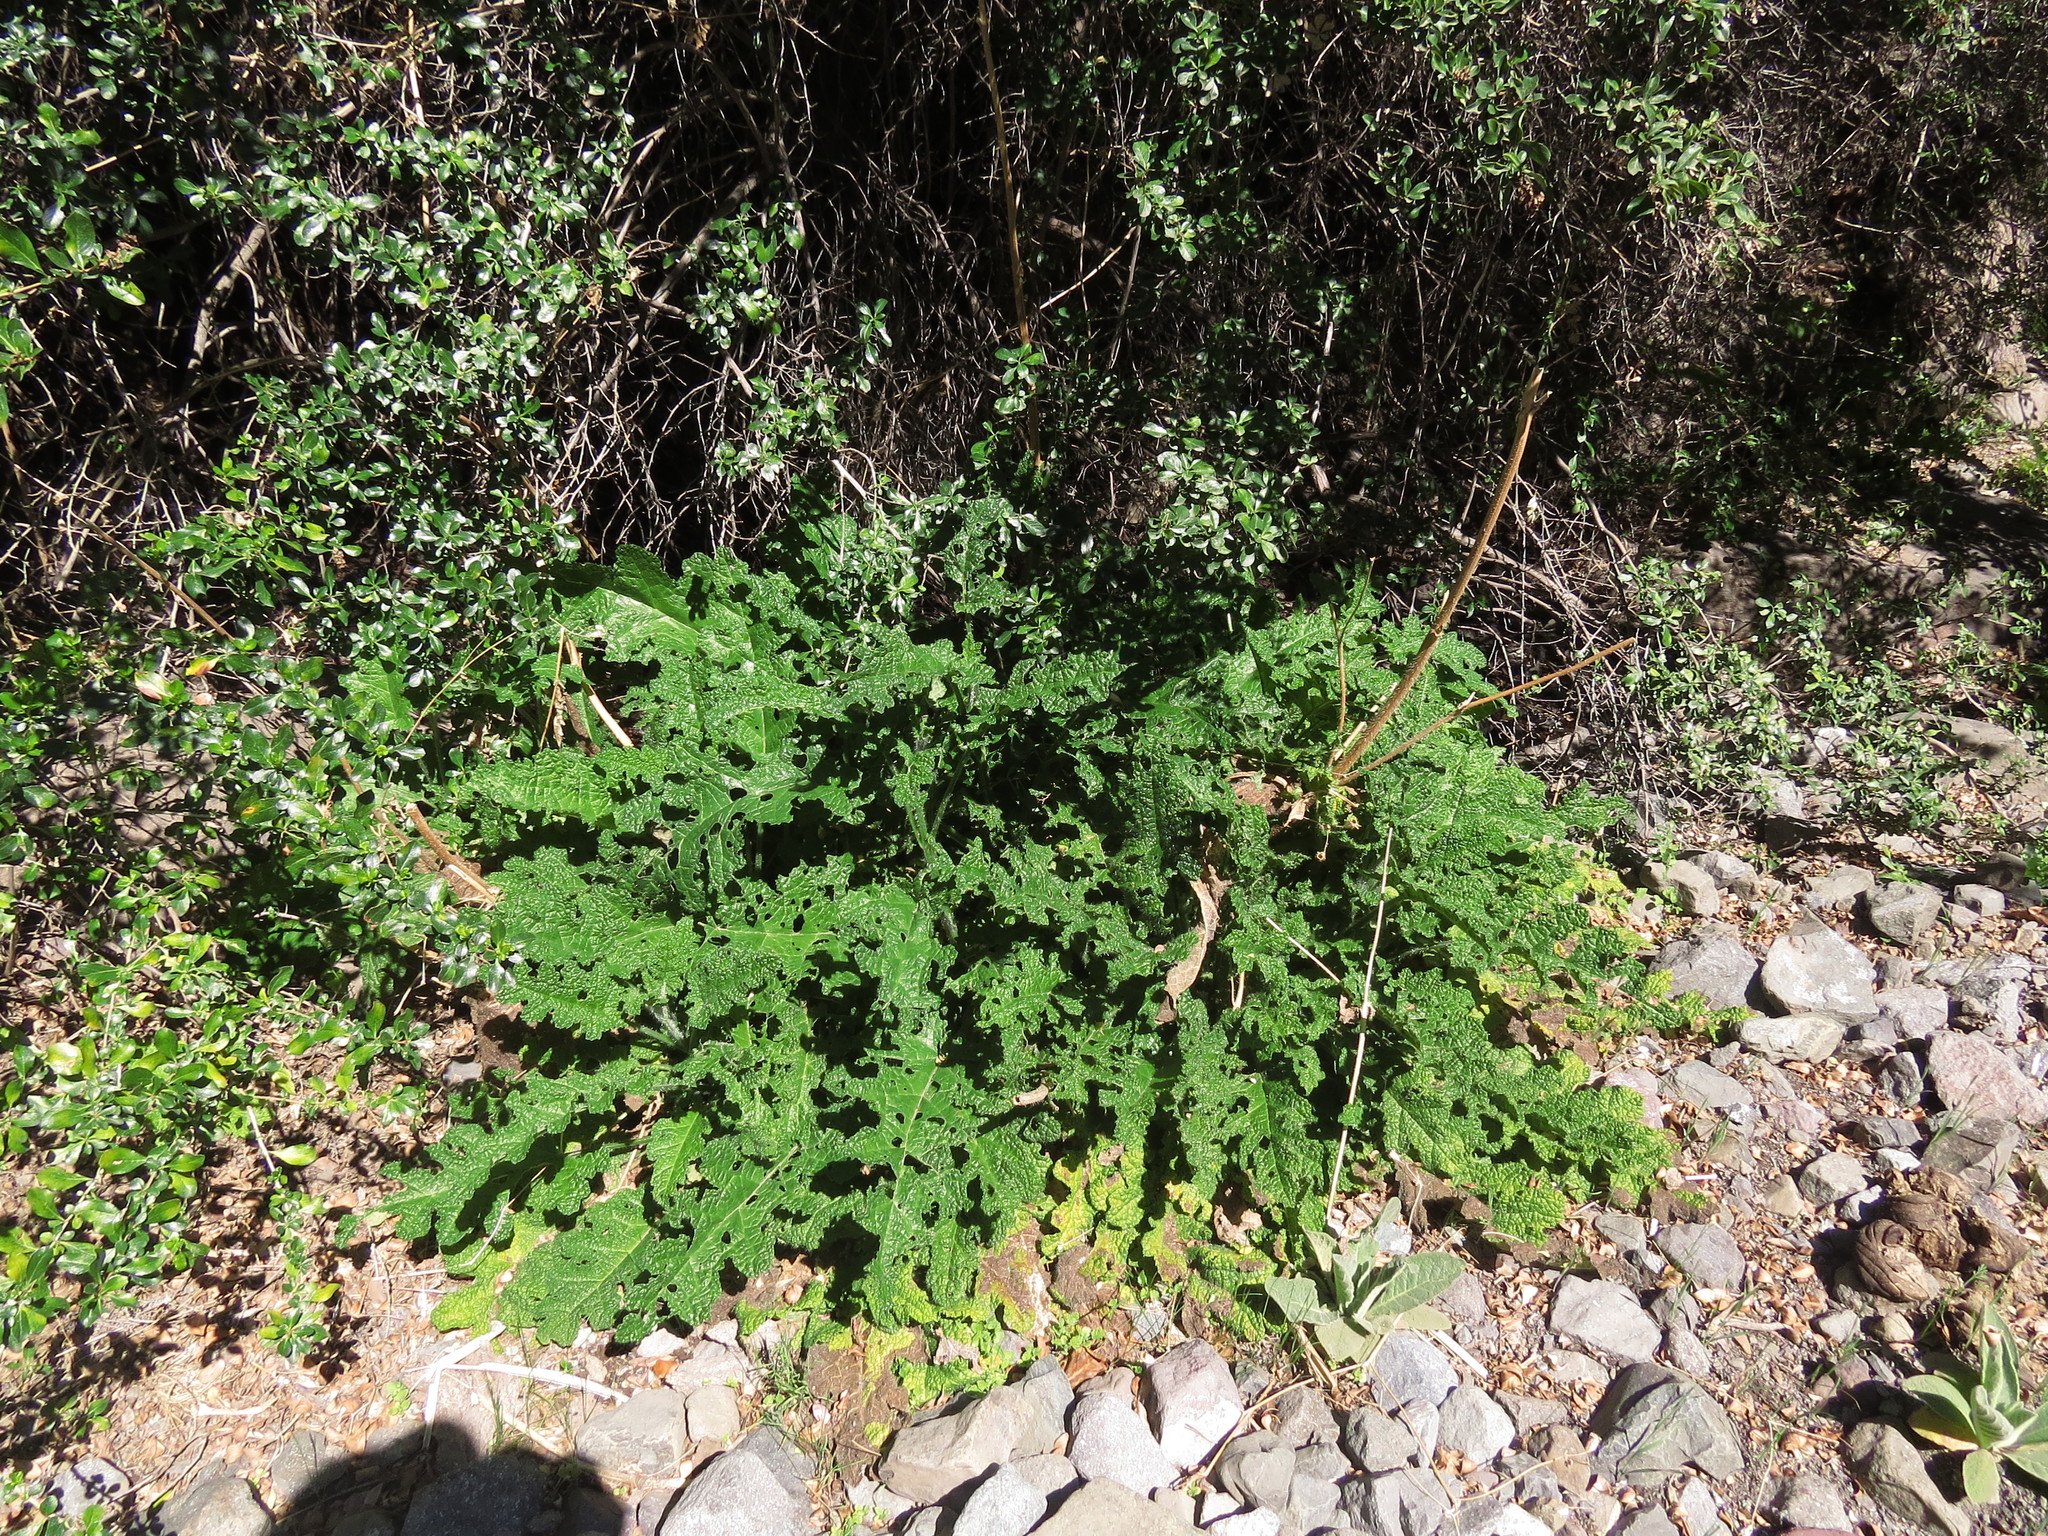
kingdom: Plantae
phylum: Tracheophyta
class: Magnoliopsida
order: Cornales
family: Loasaceae
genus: Loasa
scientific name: Loasa sclareifolia
